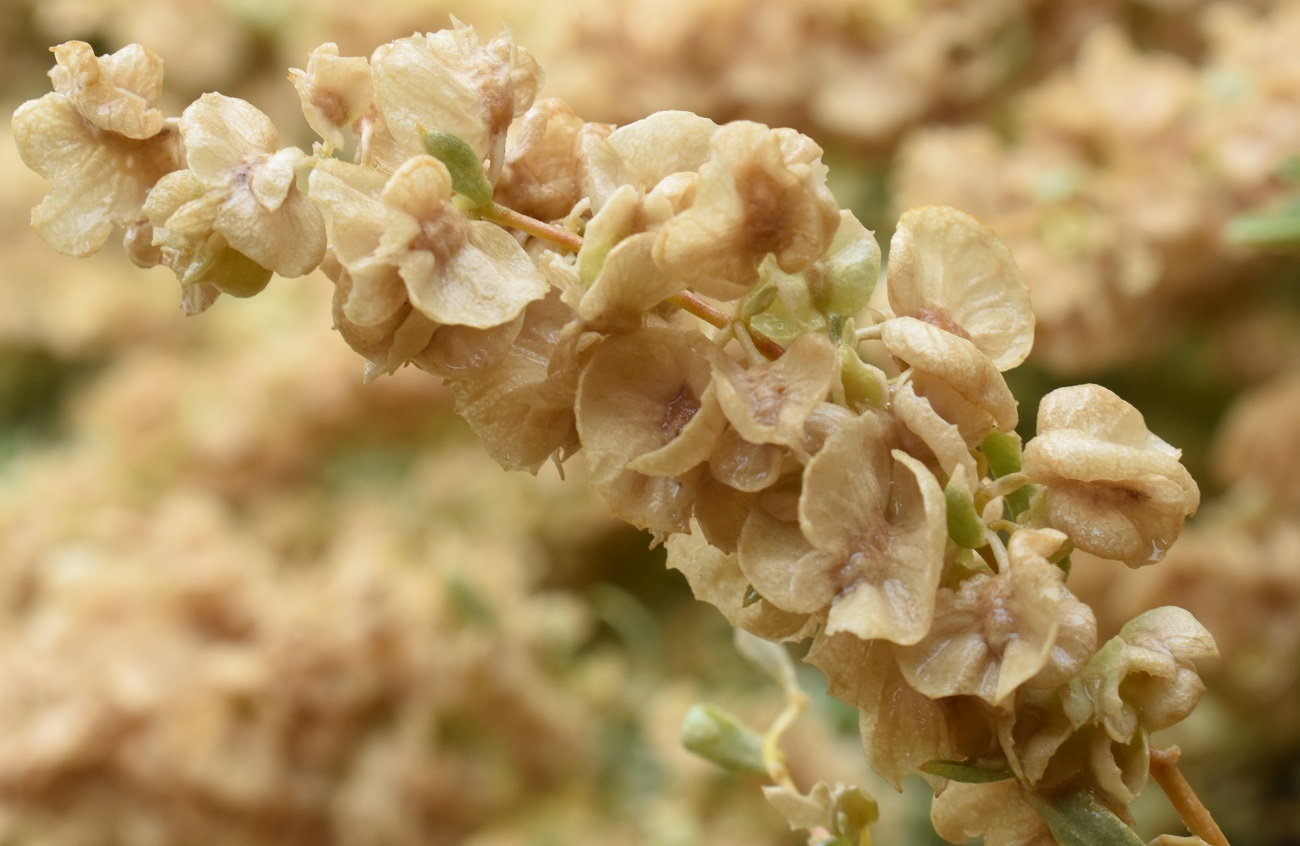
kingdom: Plantae
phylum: Tracheophyta
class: Magnoliopsida
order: Caryophyllales
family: Amaranthaceae
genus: Atriplex
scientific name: Atriplex canescens
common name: Four-wing saltbush
